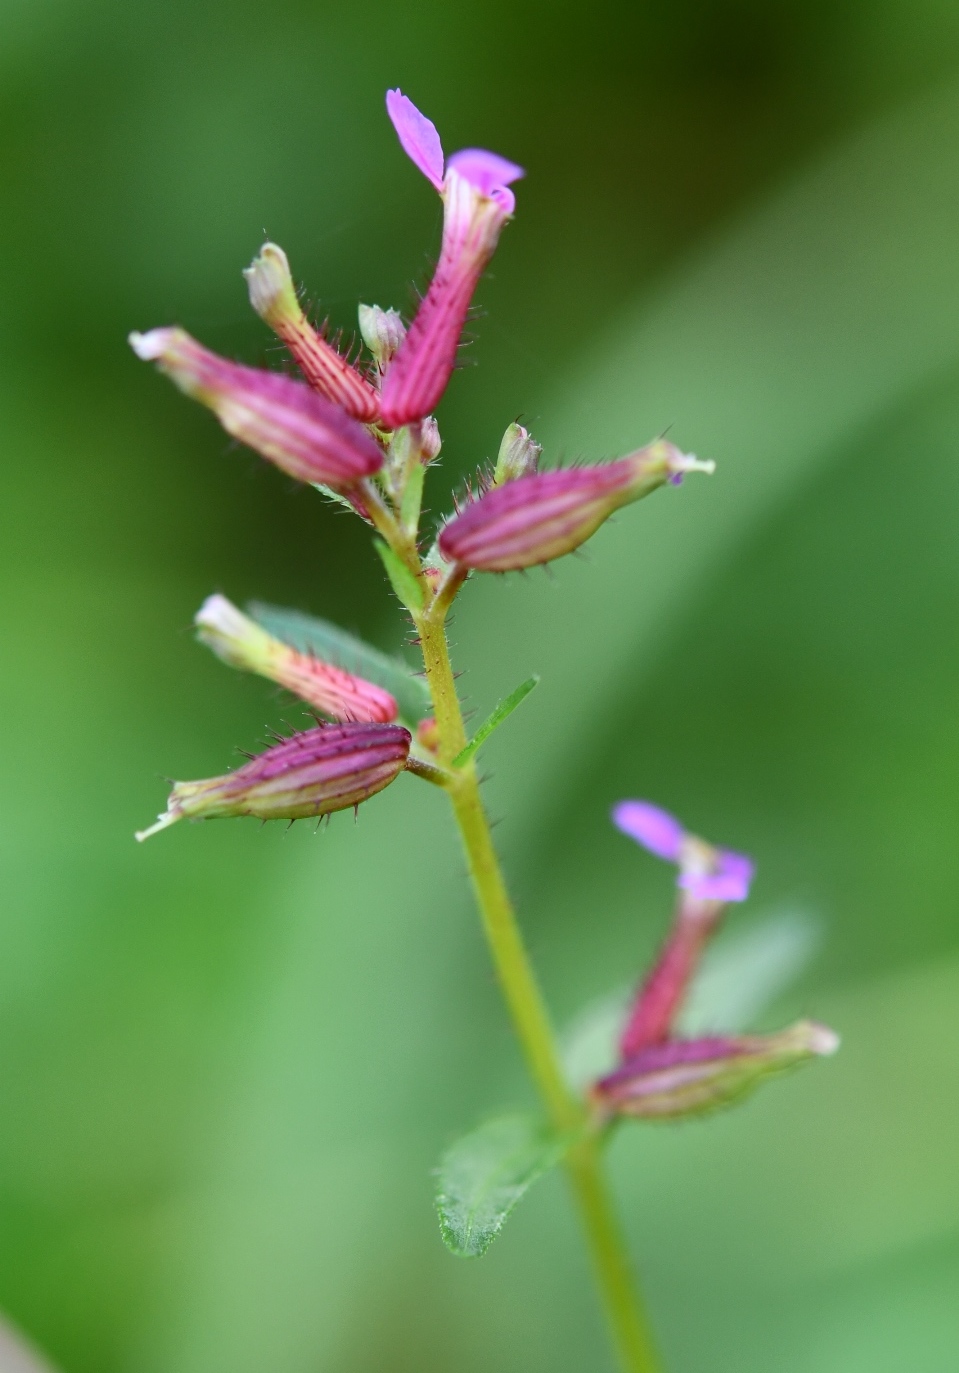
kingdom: Plantae
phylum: Tracheophyta
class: Magnoliopsida
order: Myrtales
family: Lythraceae
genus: Cuphea
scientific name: Cuphea wrightii
